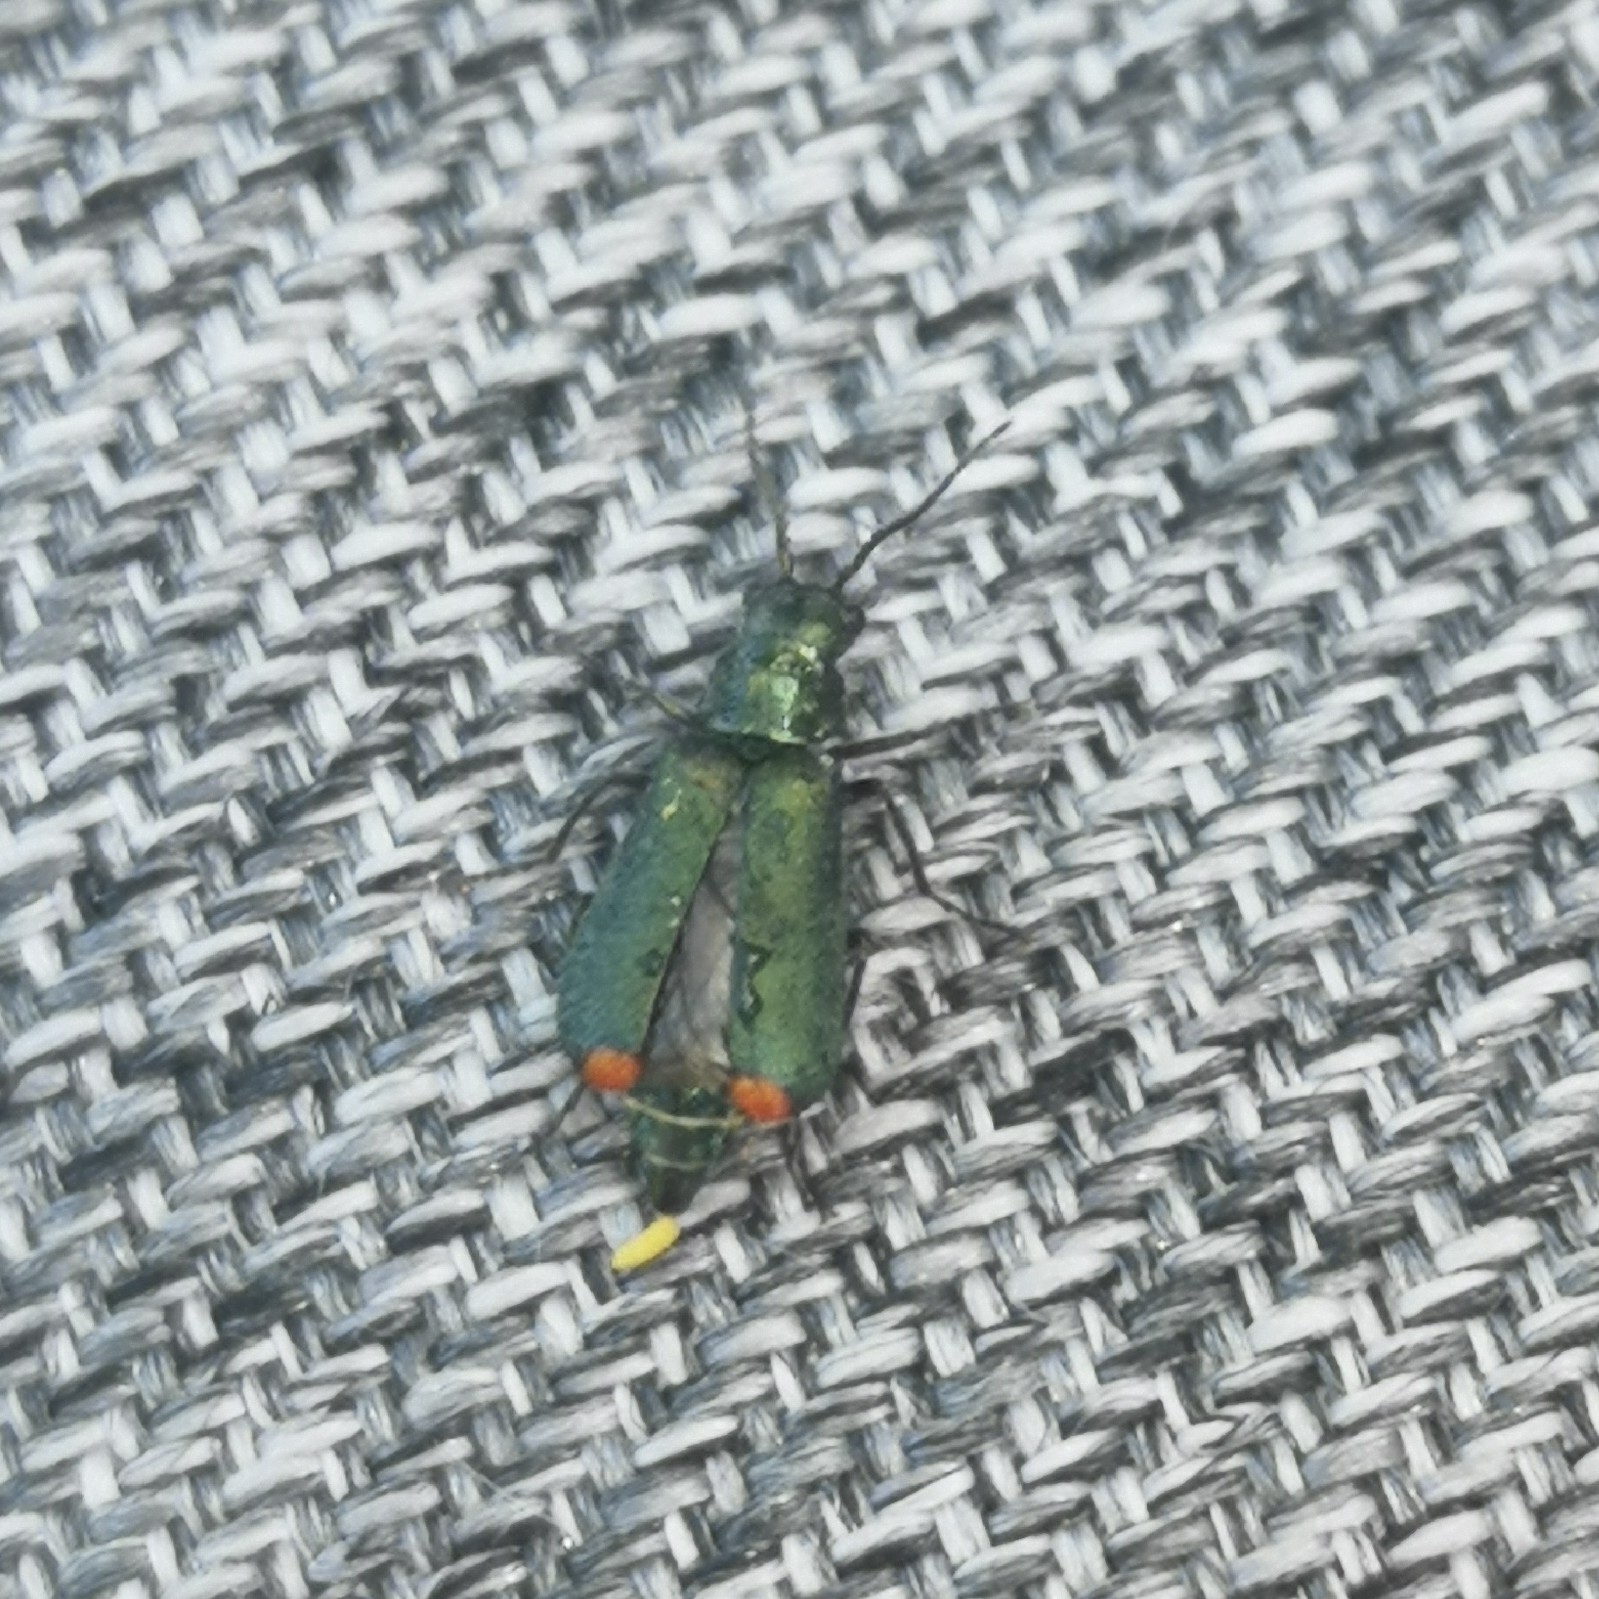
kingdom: Animalia
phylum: Arthropoda
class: Insecta
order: Coleoptera
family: Melyridae
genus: Malachius
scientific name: Malachius bipustulatus
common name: Malachite beetle
